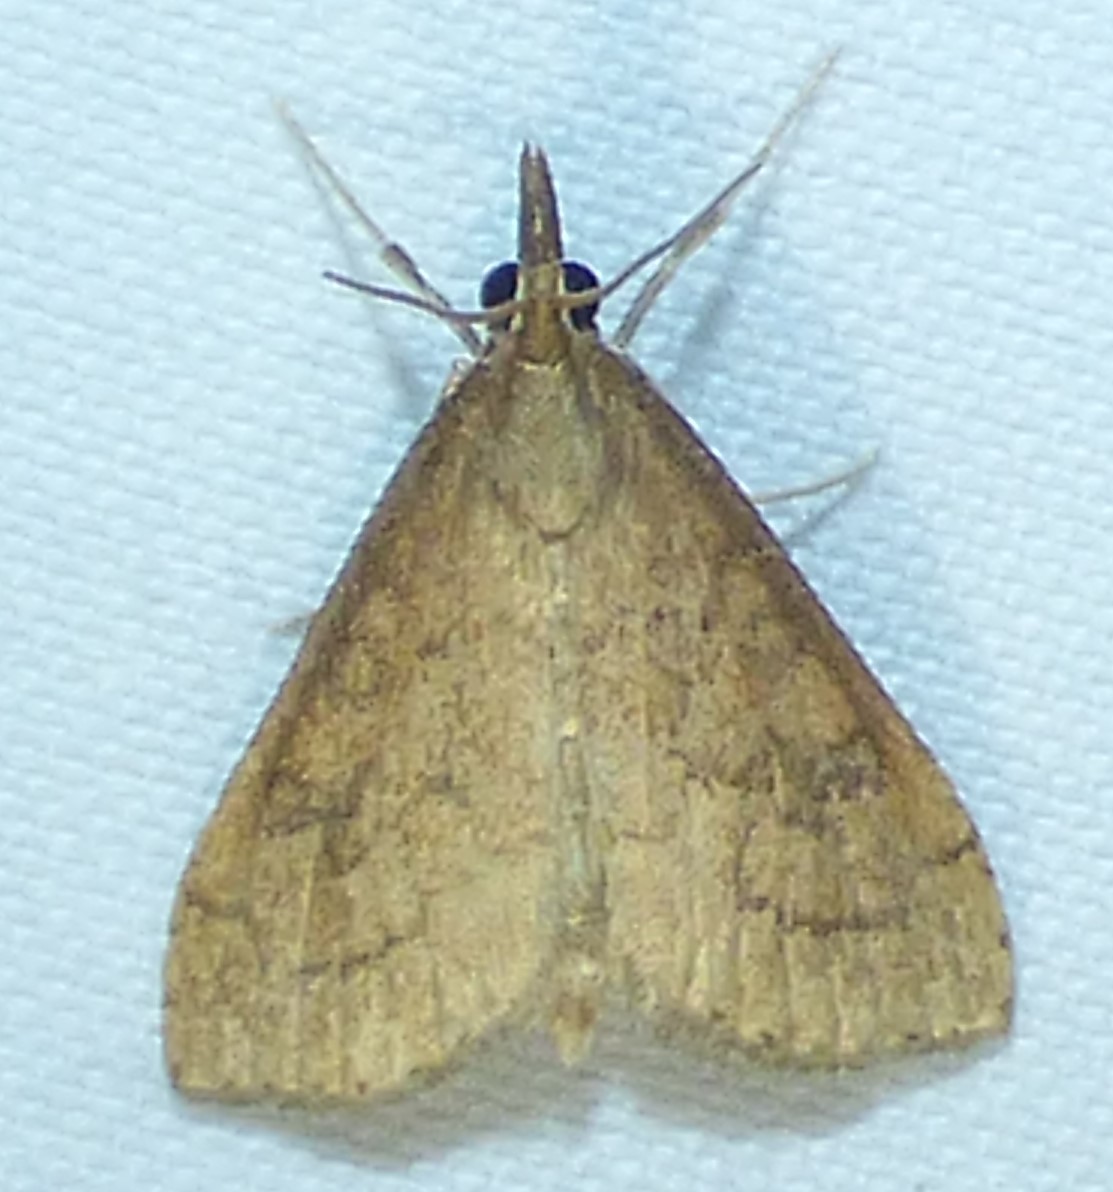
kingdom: Animalia
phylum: Arthropoda
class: Insecta
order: Lepidoptera
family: Crambidae
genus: Udea
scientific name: Udea rubigalis
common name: Celery leaftier moth
